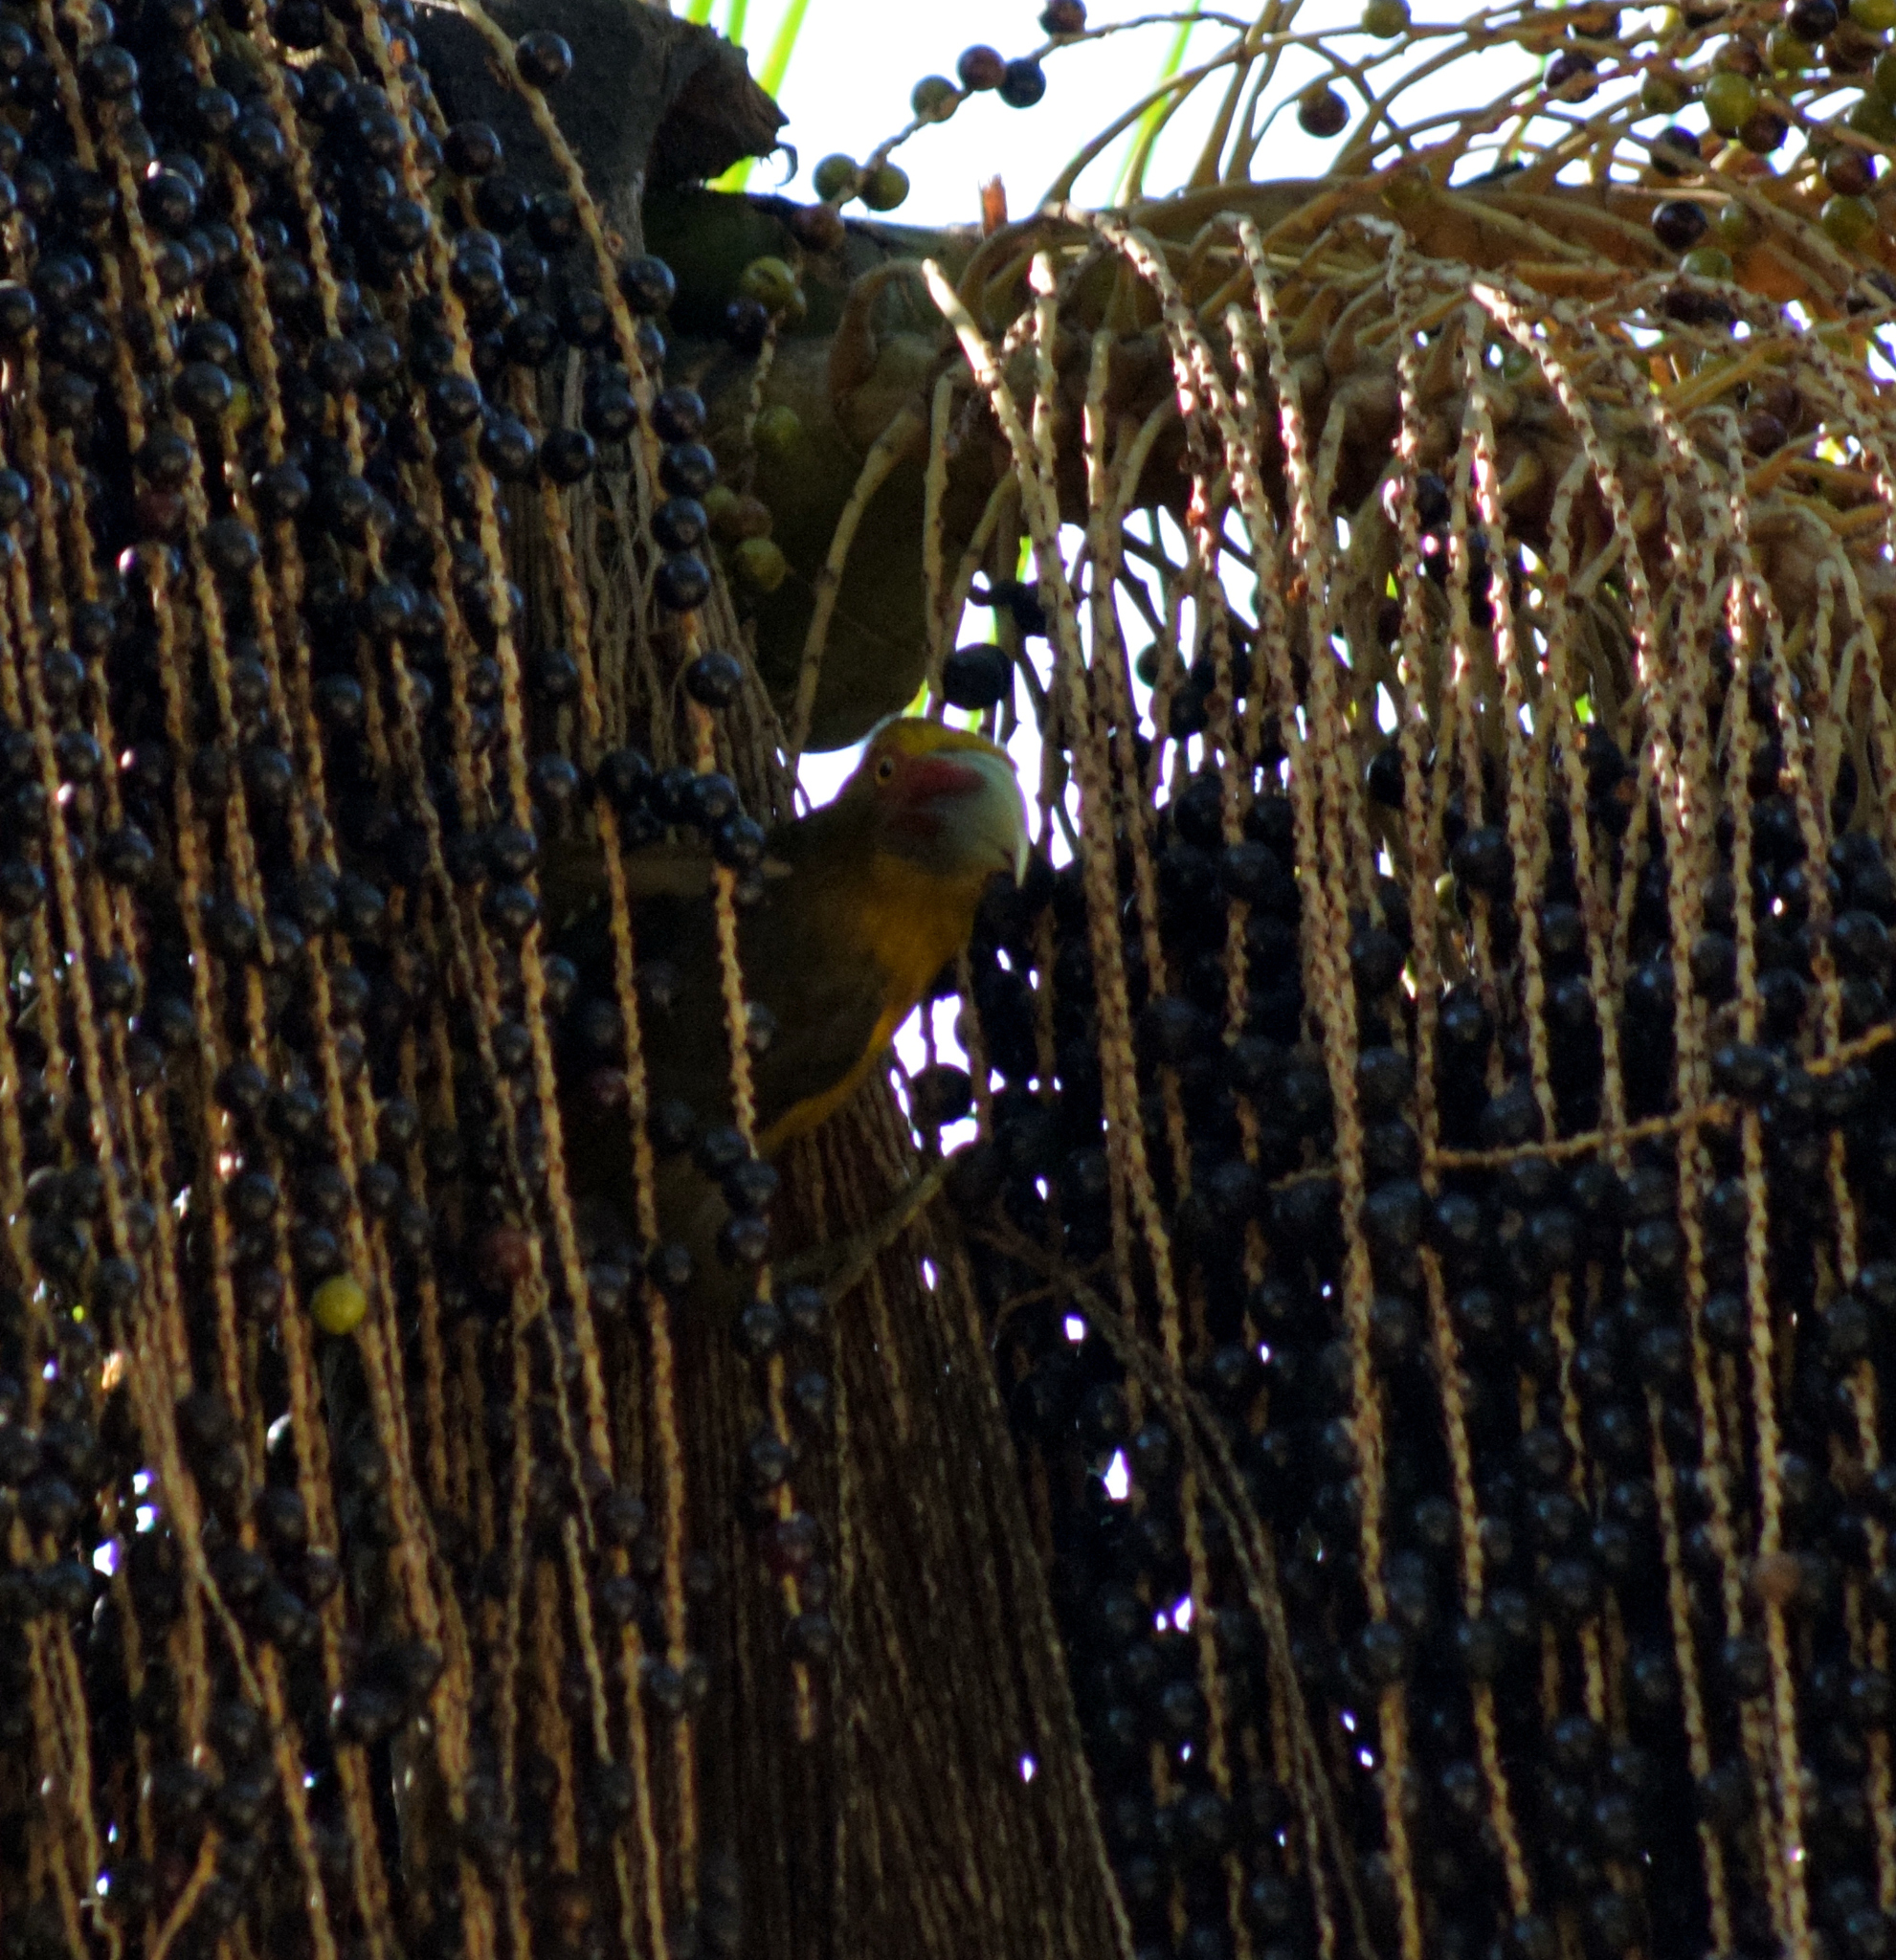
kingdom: Animalia
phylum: Chordata
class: Aves
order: Piciformes
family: Ramphastidae
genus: Pteroglossus
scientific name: Pteroglossus bailloni
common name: Saffron toucanet
